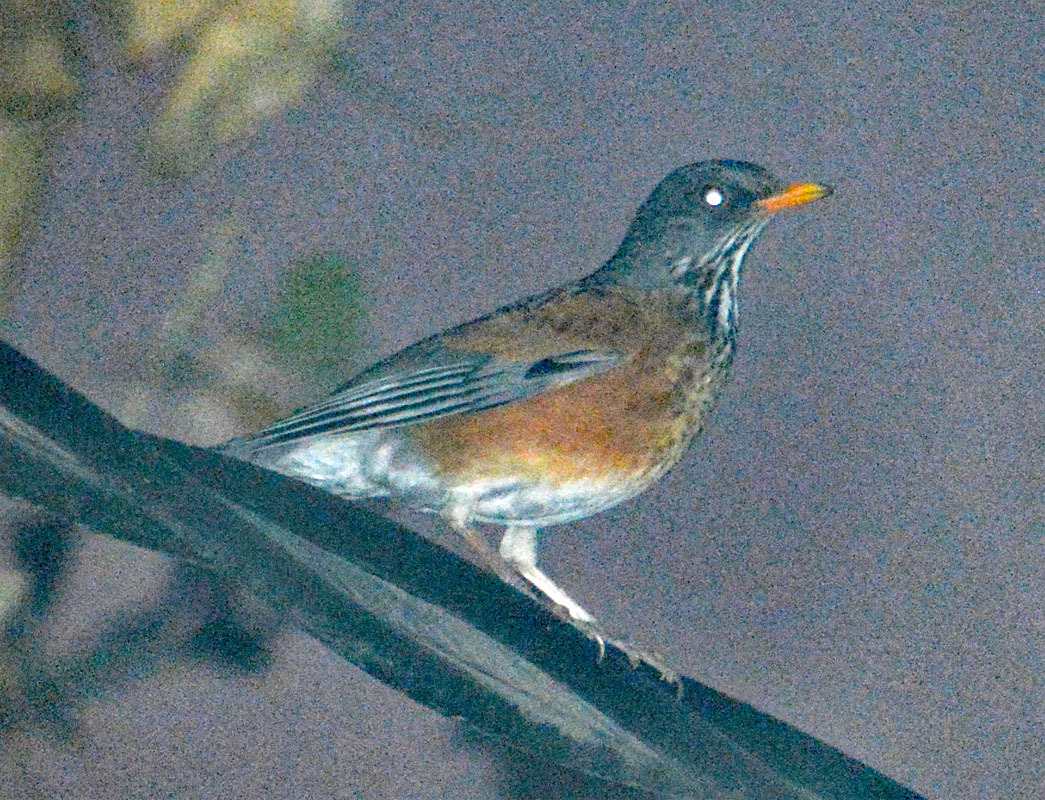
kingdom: Animalia
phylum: Chordata
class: Aves
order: Passeriformes
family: Turdidae
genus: Turdus
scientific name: Turdus rufopalliatus
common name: Rufous-backed robin
